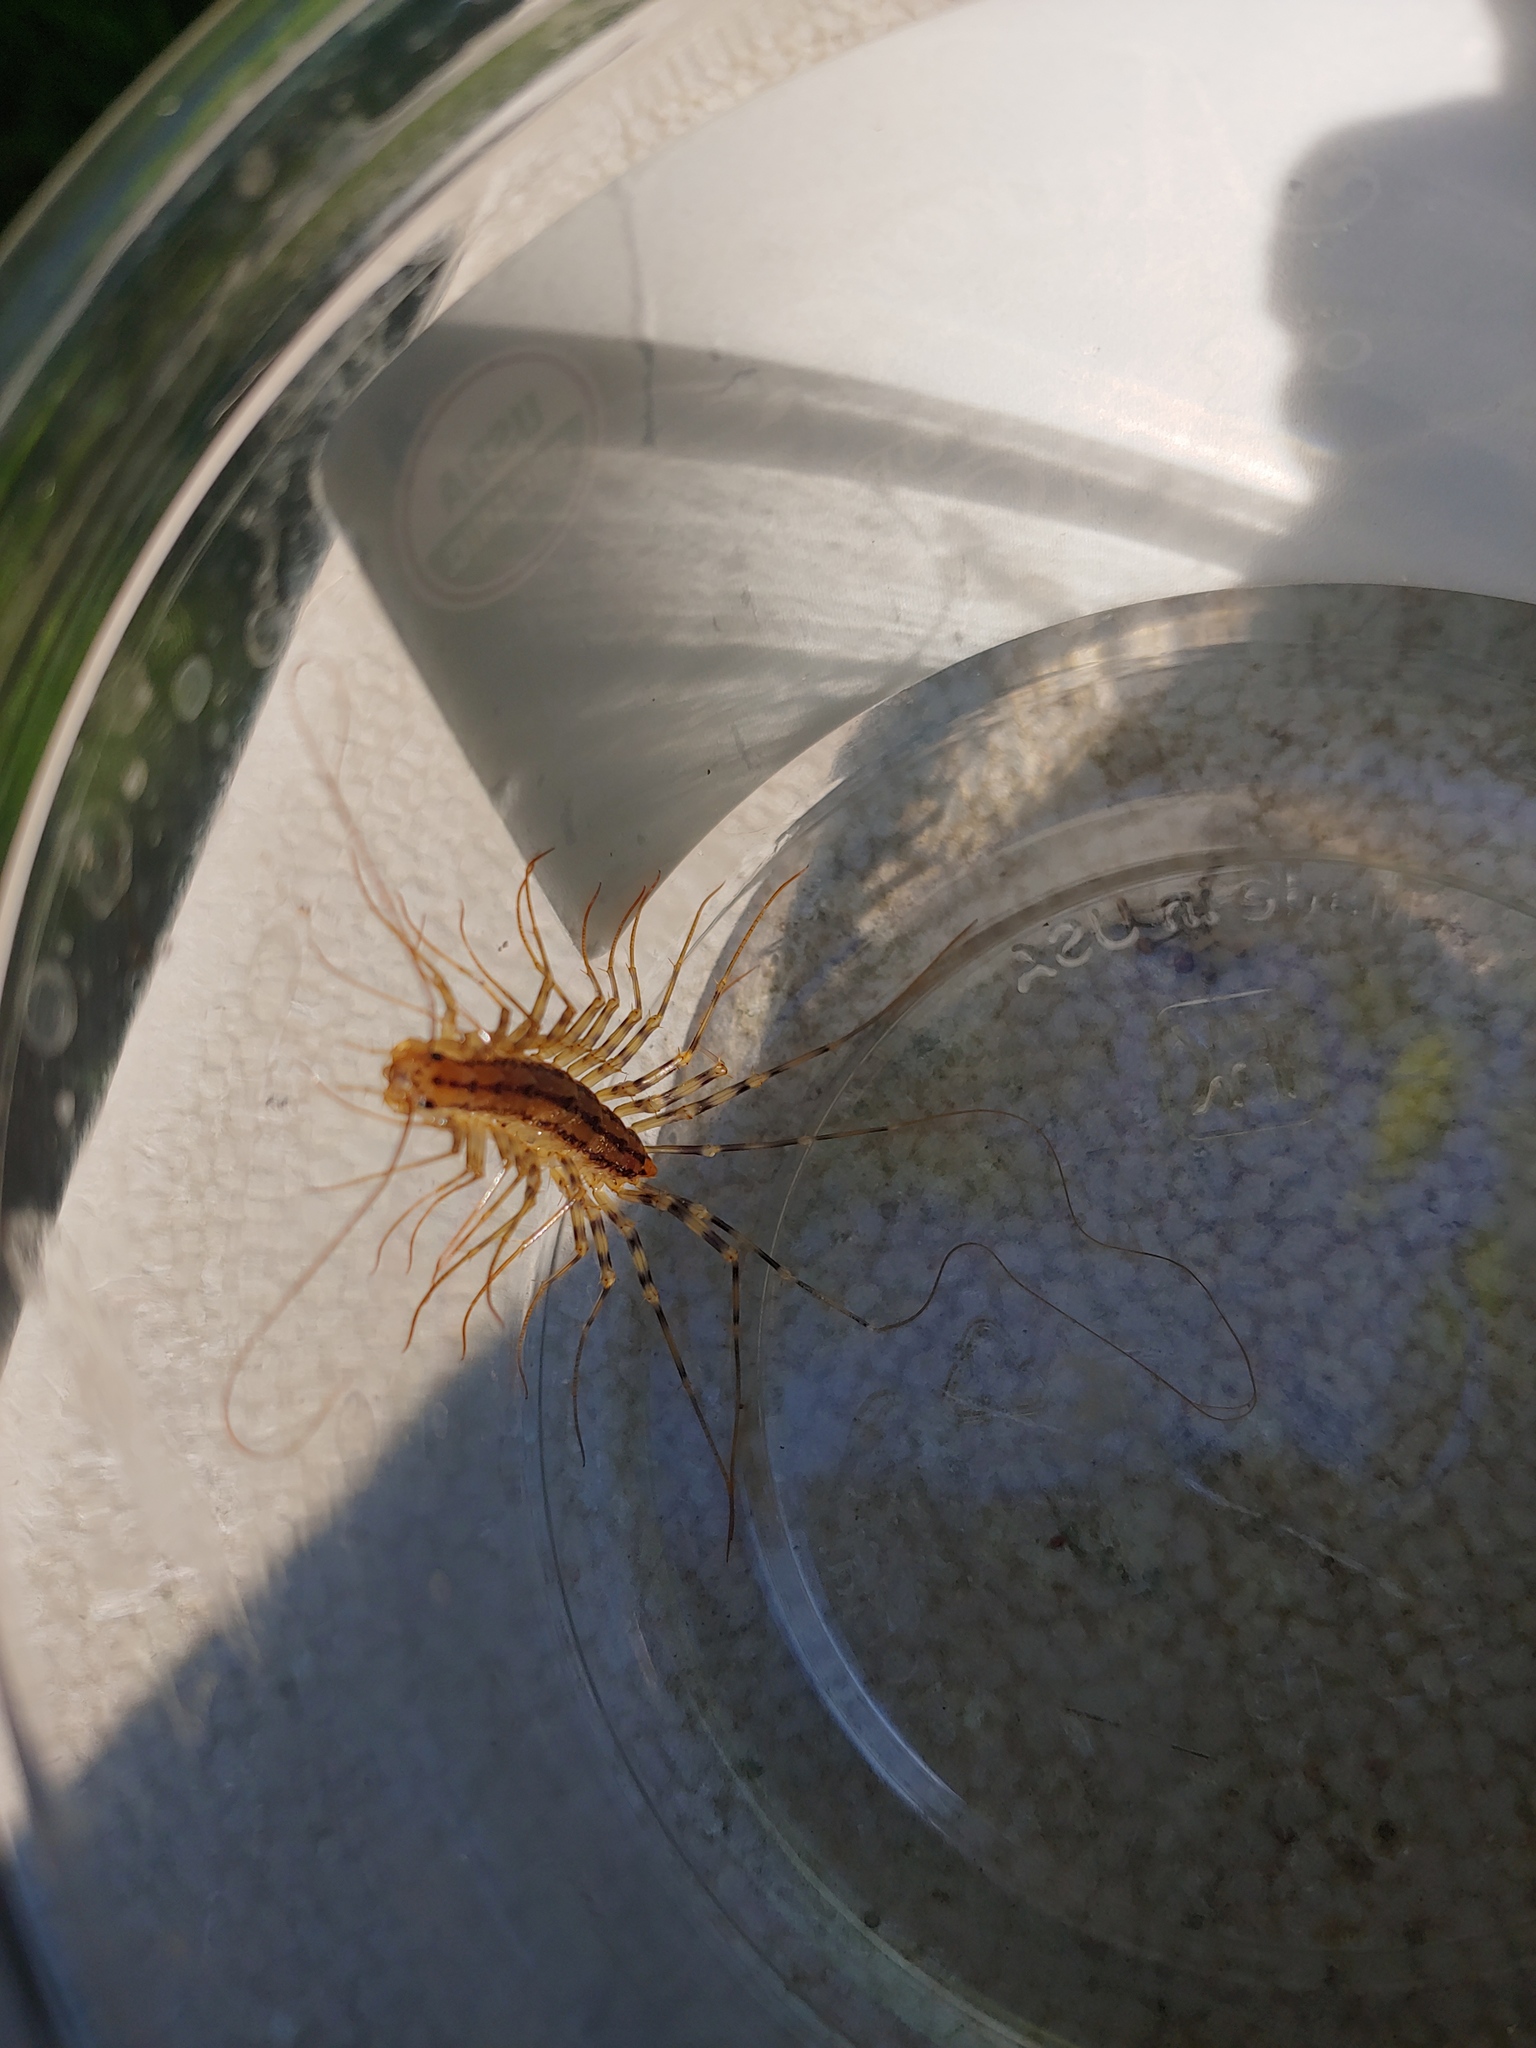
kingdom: Animalia
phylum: Arthropoda
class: Chilopoda
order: Scutigeromorpha
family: Scutigeridae
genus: Scutigera
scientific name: Scutigera coleoptrata
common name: House centipede
